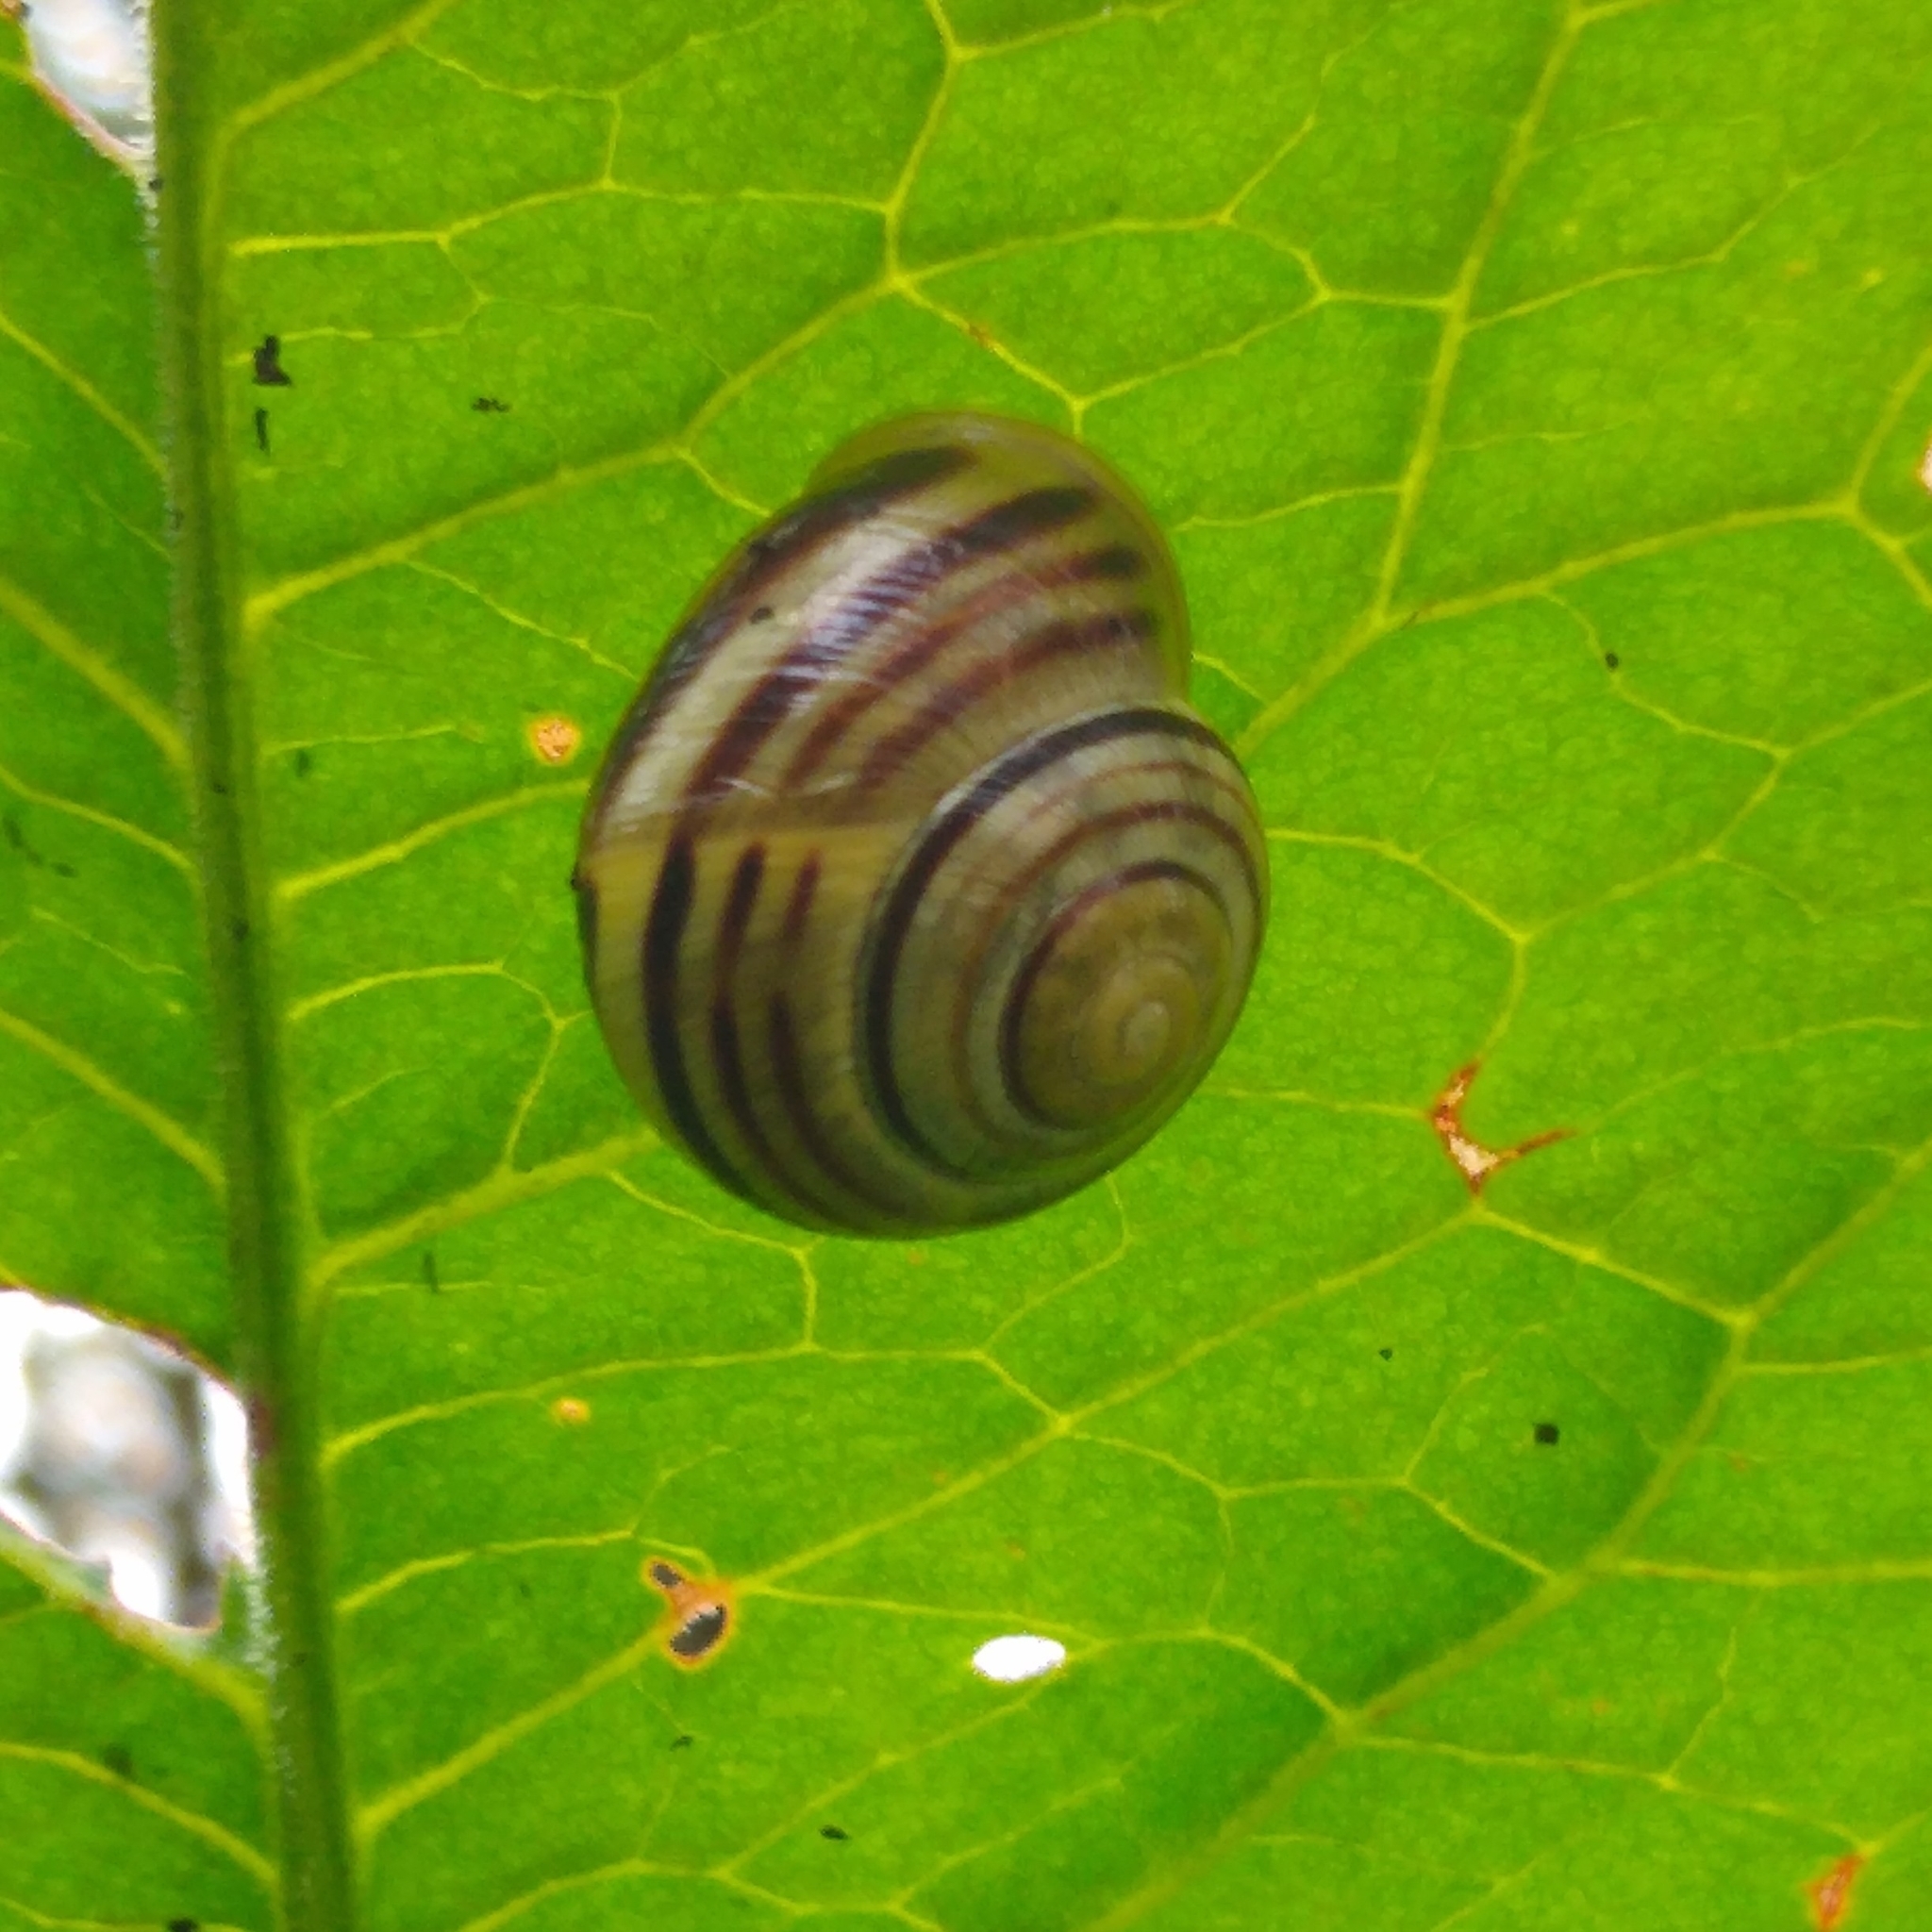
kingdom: Animalia
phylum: Mollusca
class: Gastropoda
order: Stylommatophora
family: Helicidae
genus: Cepaea
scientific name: Cepaea hortensis
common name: White-lip gardensnail
